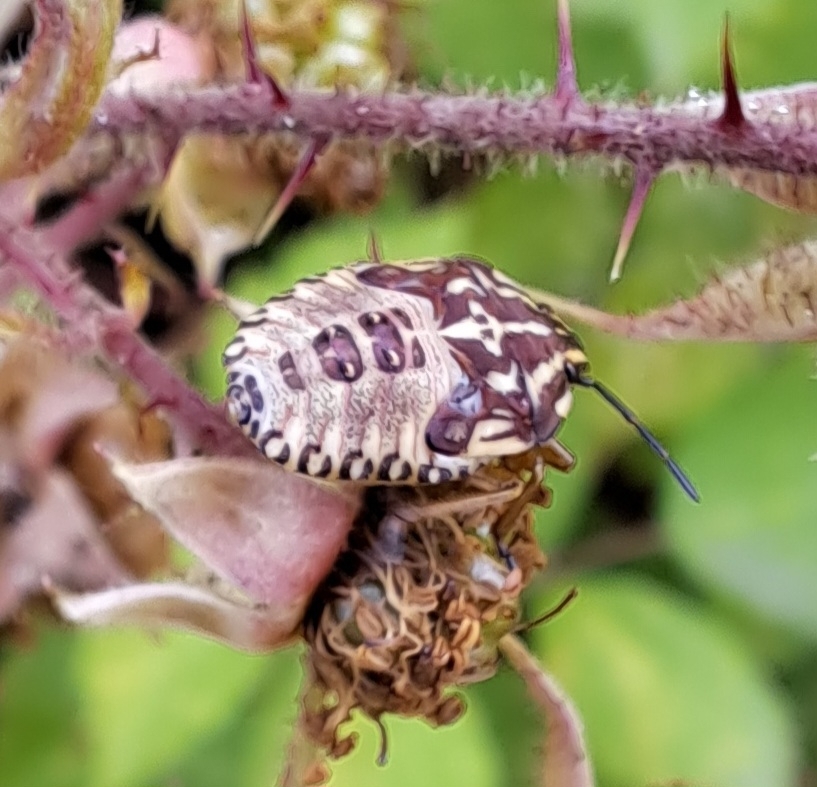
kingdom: Animalia
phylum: Arthropoda
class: Insecta
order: Hemiptera
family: Pentatomidae
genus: Carpocoris
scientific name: Carpocoris purpureipennis
